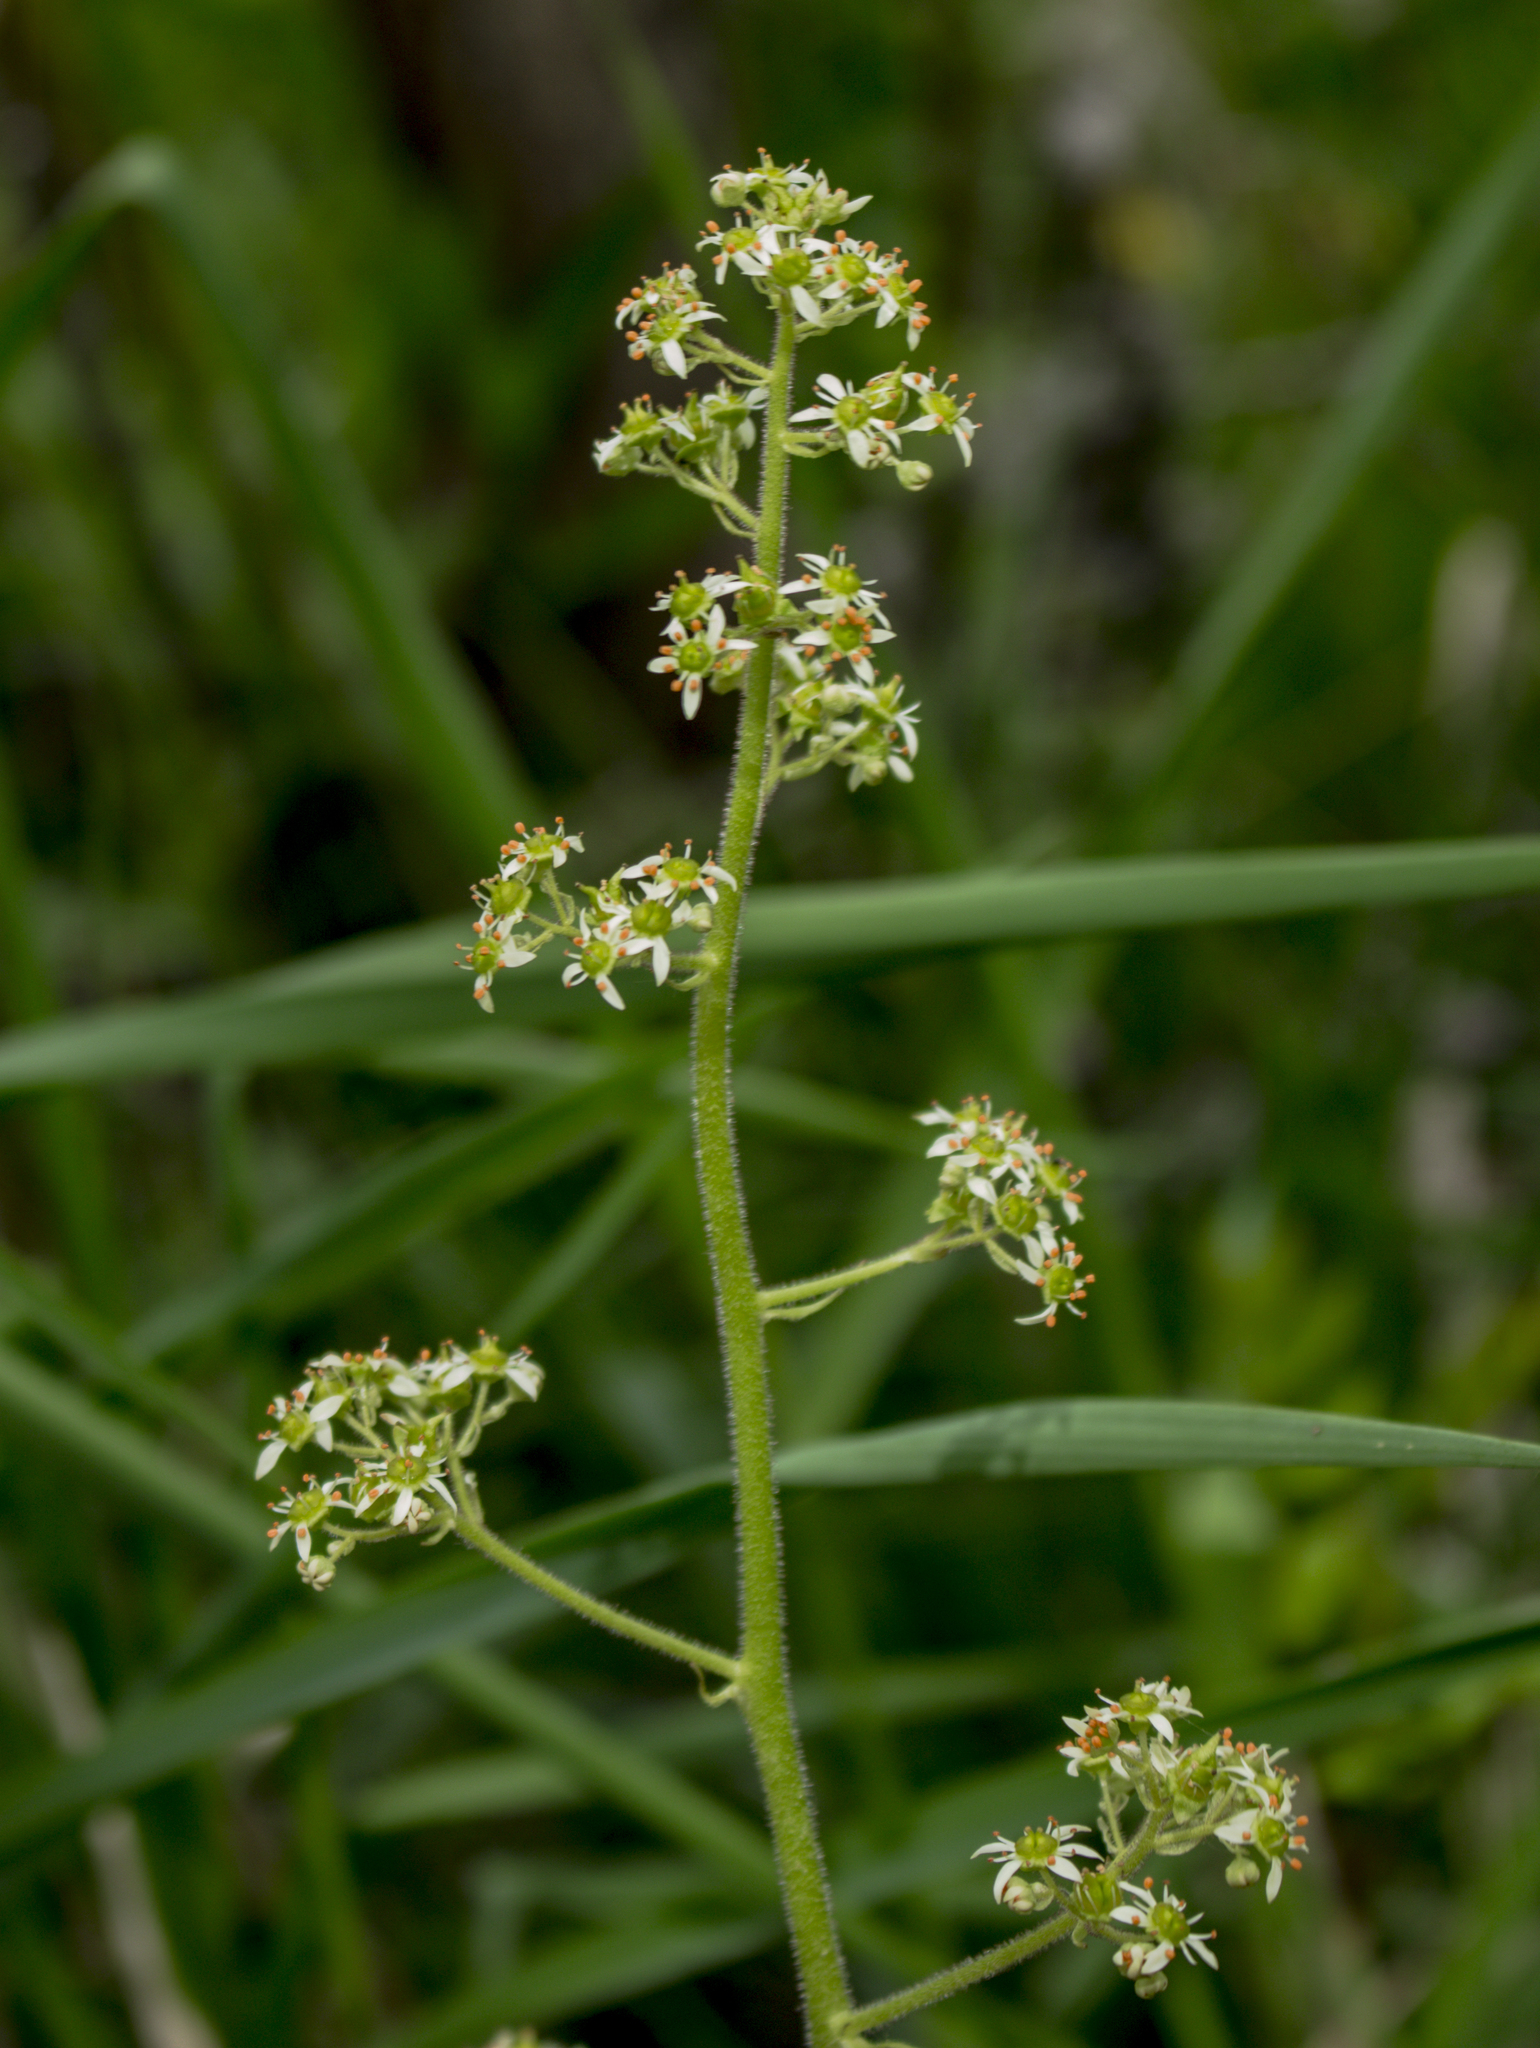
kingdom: Plantae
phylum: Tracheophyta
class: Magnoliopsida
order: Saxifragales
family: Saxifragaceae
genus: Micranthes
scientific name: Micranthes pensylvanica
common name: Marsh saxifrage
